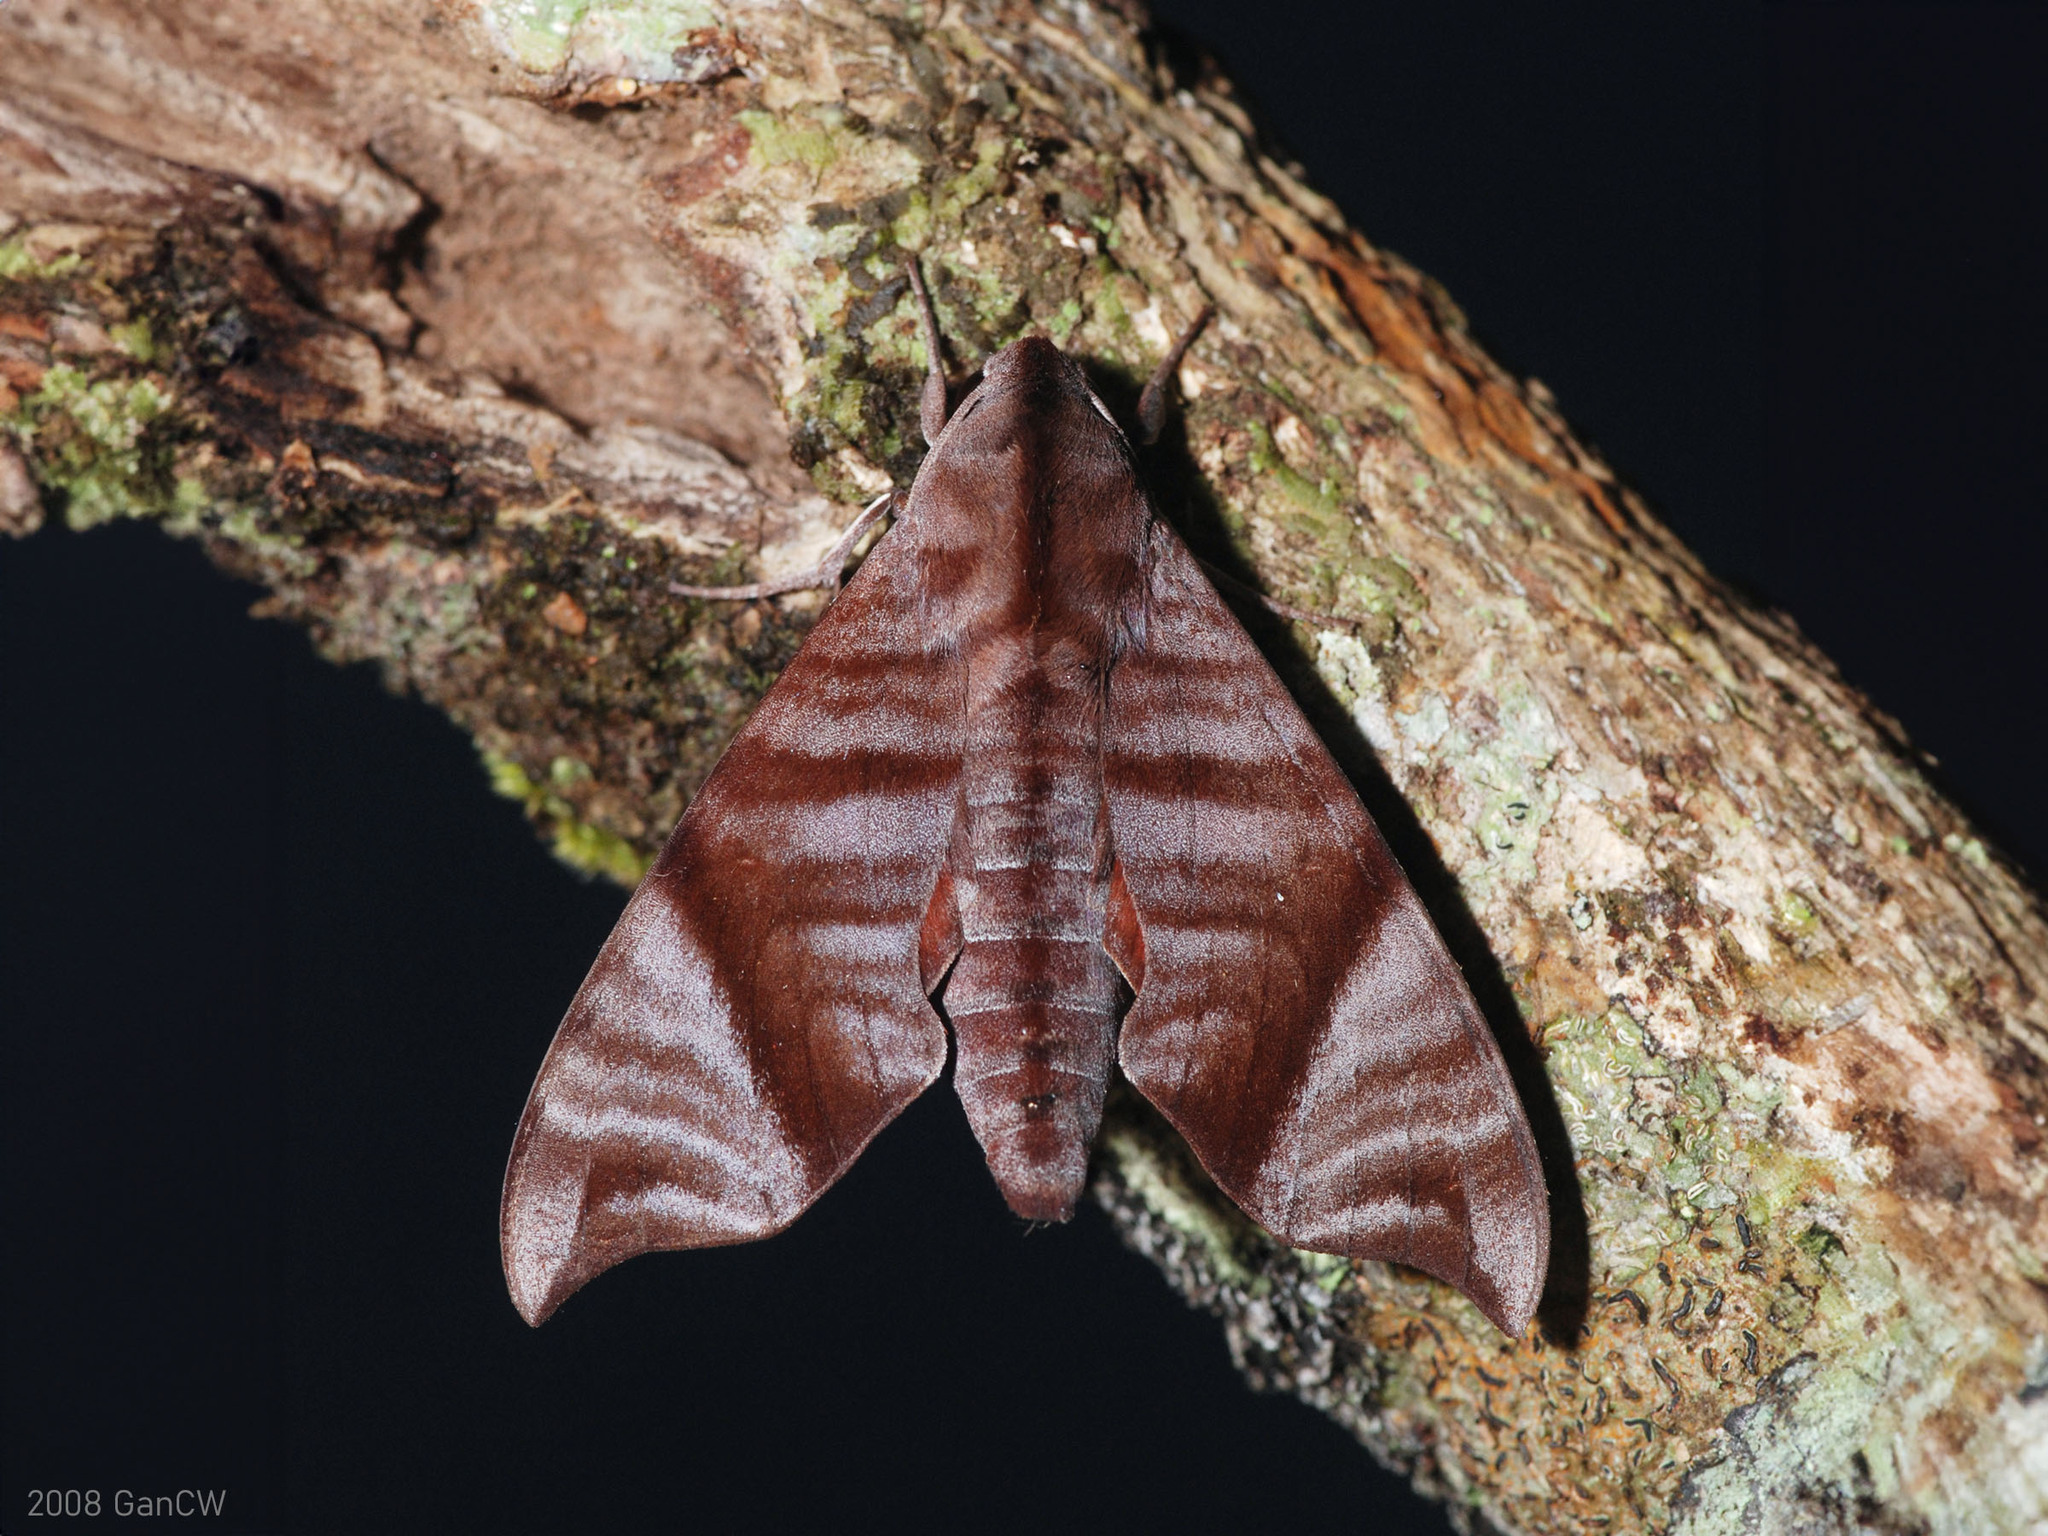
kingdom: Animalia
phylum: Arthropoda
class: Insecta
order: Lepidoptera
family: Sphingidae
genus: Dahira
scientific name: Dahira falcata
